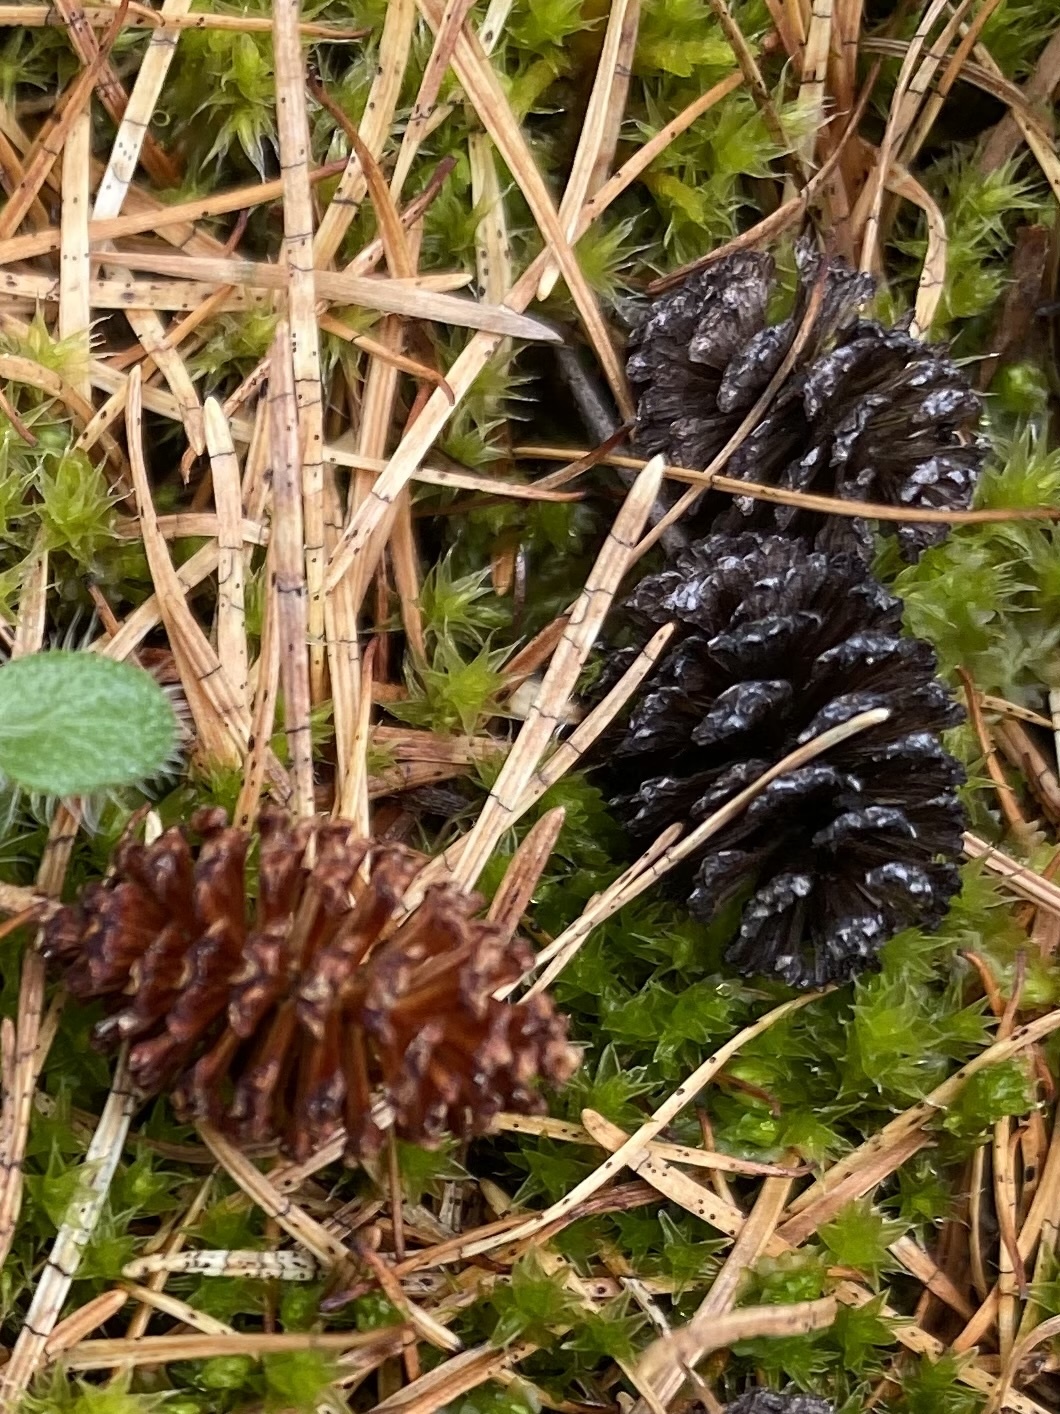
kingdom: Plantae
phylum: Tracheophyta
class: Magnoliopsida
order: Lamiales
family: Lamiaceae
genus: Thymus
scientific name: Thymus extremus
